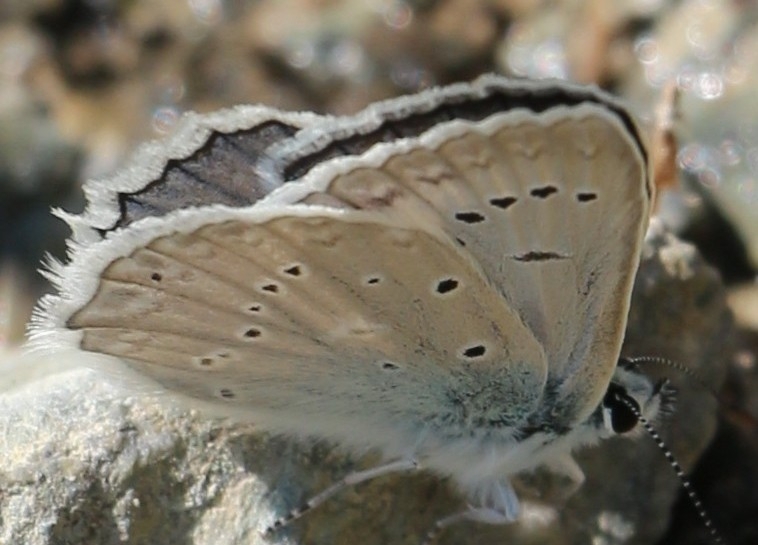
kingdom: Animalia
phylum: Arthropoda
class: Insecta
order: Lepidoptera
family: Lycaenidae
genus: Polyommatus
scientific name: Polyommatus daphnis
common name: Meleager's blue
